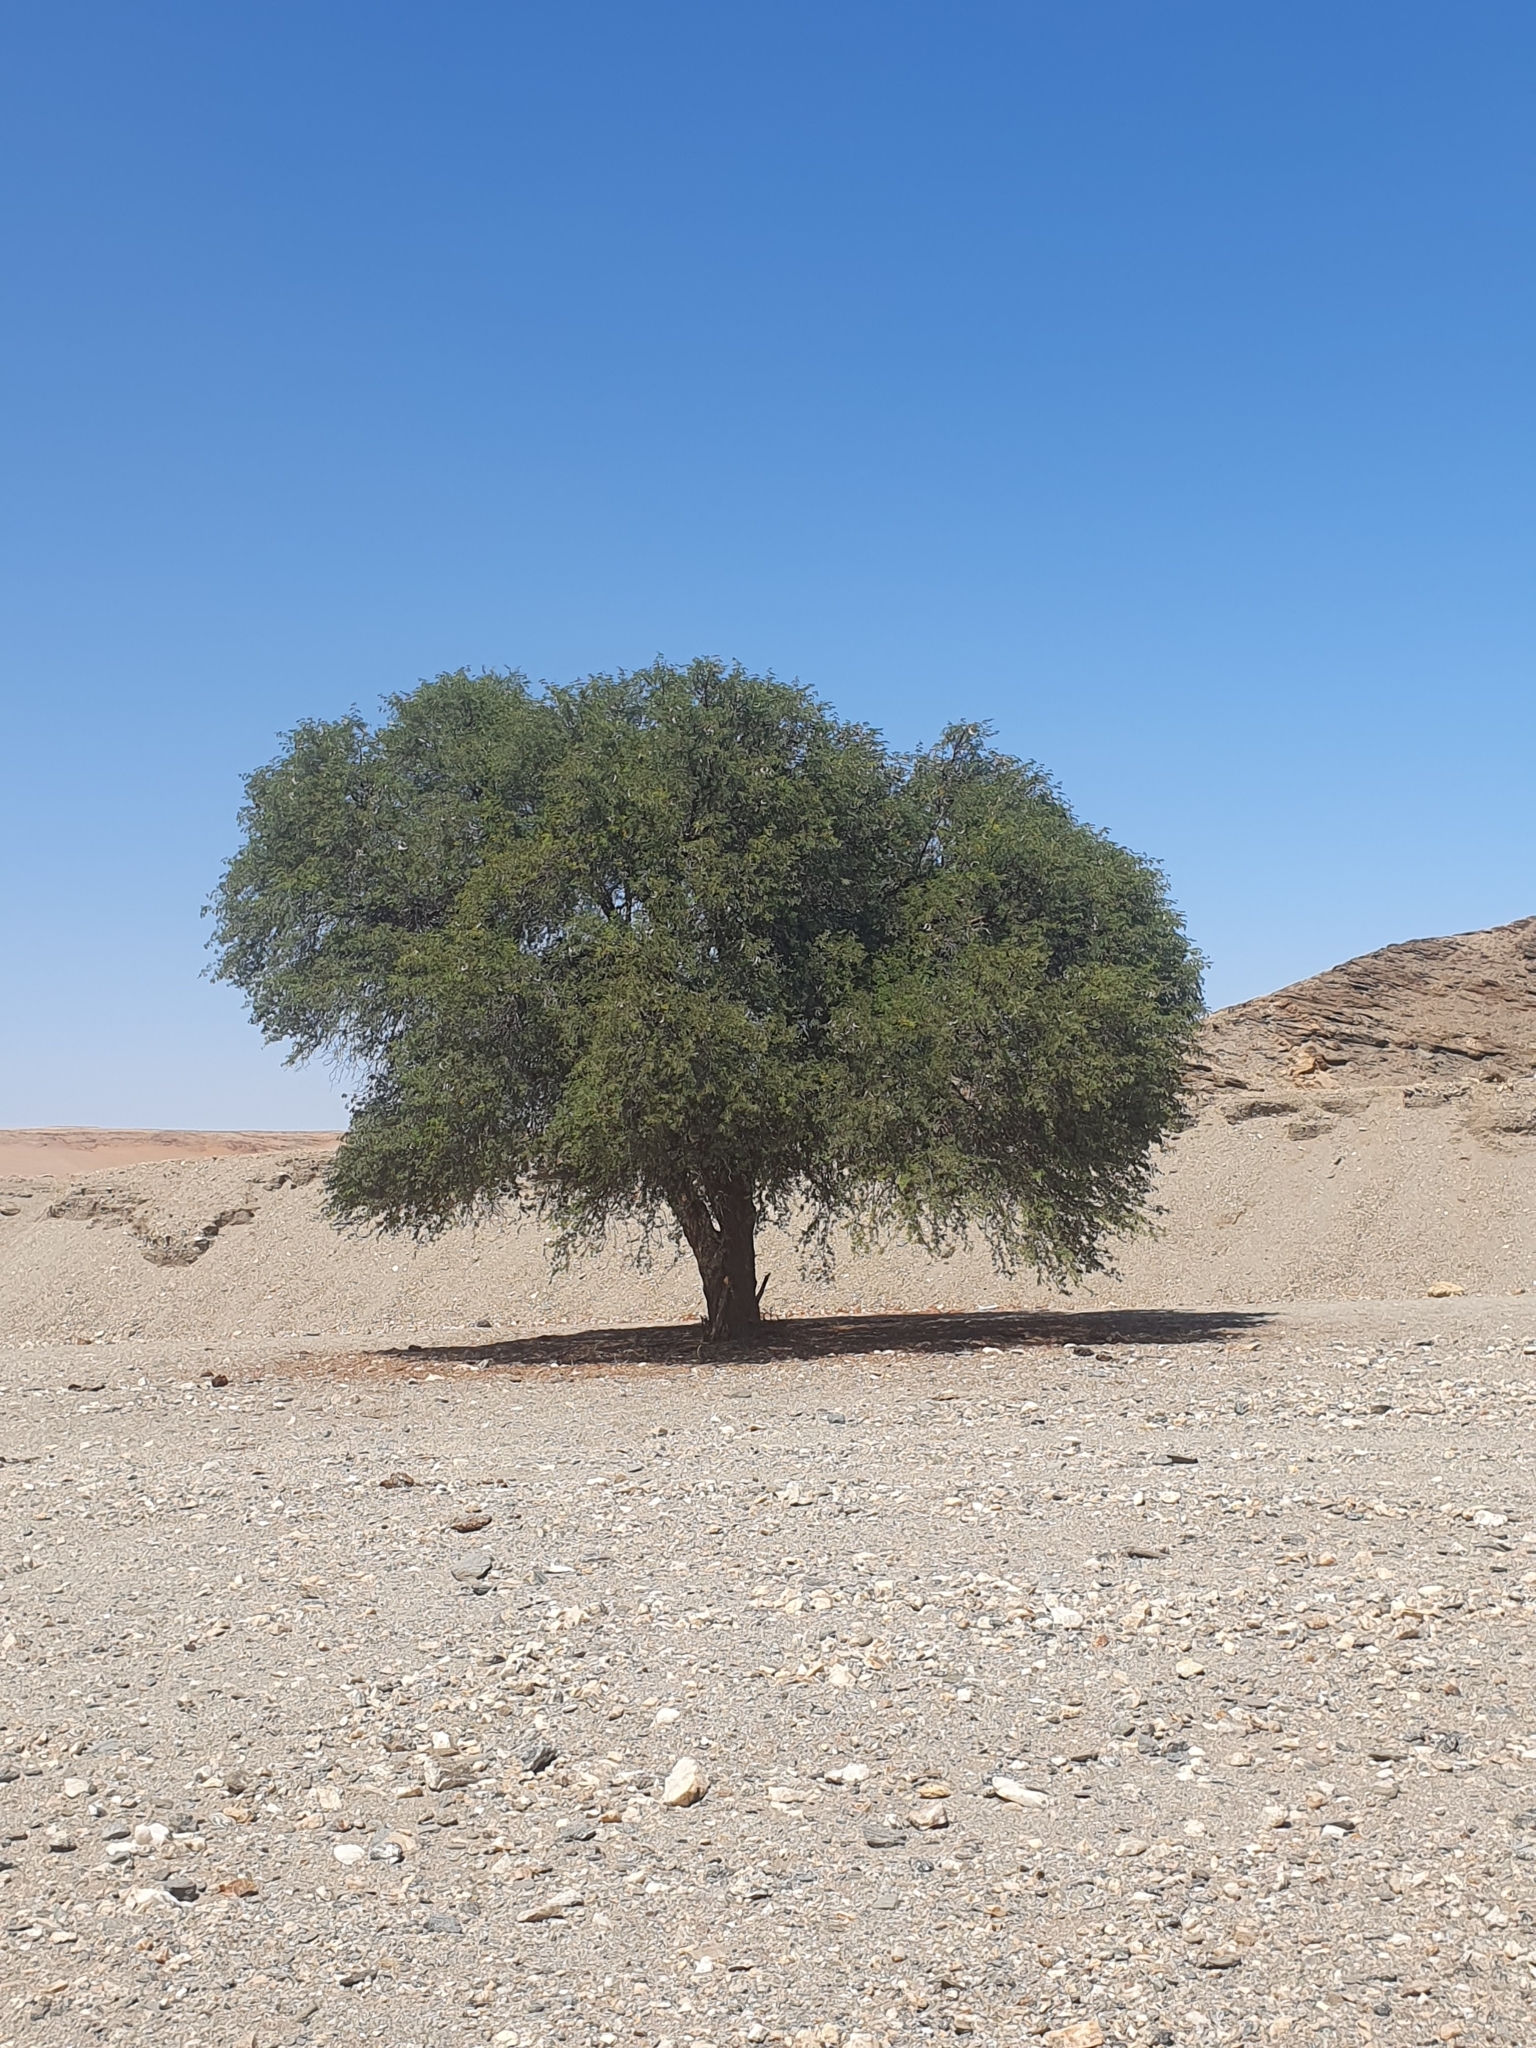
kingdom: Plantae
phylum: Tracheophyta
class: Magnoliopsida
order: Fabales
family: Fabaceae
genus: Vachellia
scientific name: Vachellia erioloba
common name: Camel thorn
